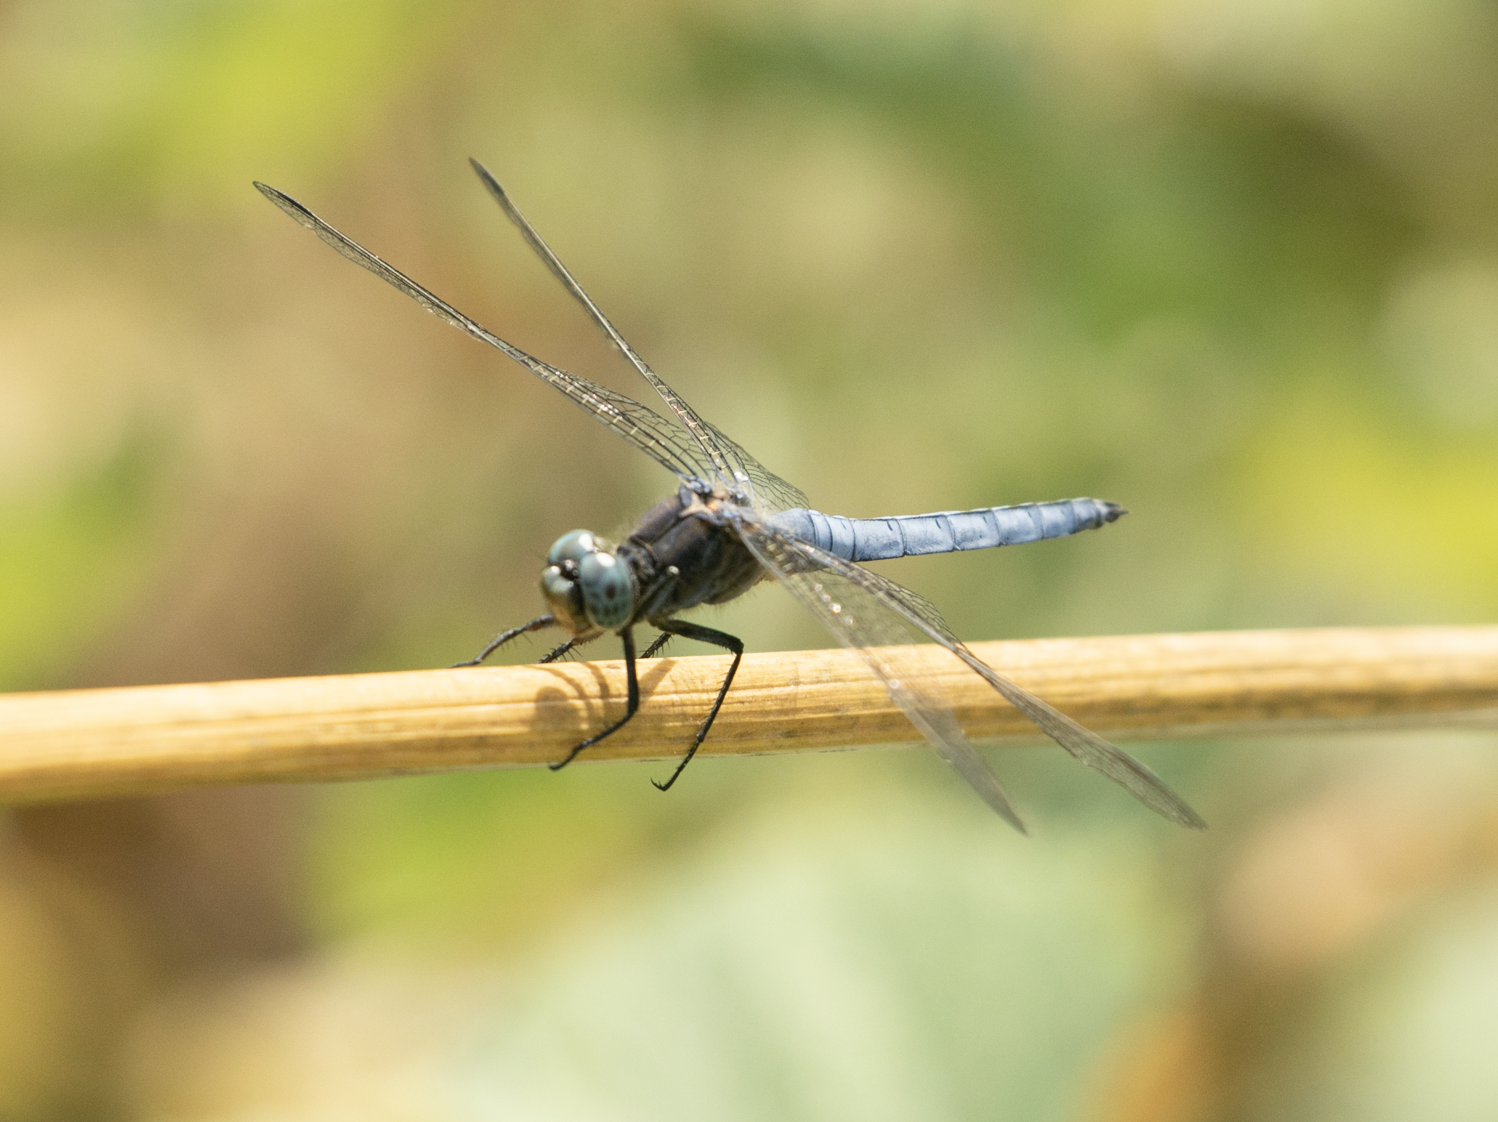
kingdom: Animalia
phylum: Arthropoda
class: Insecta
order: Odonata
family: Libellulidae
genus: Orthetrum
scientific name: Orthetrum coerulescens
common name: Keeled skimmer
